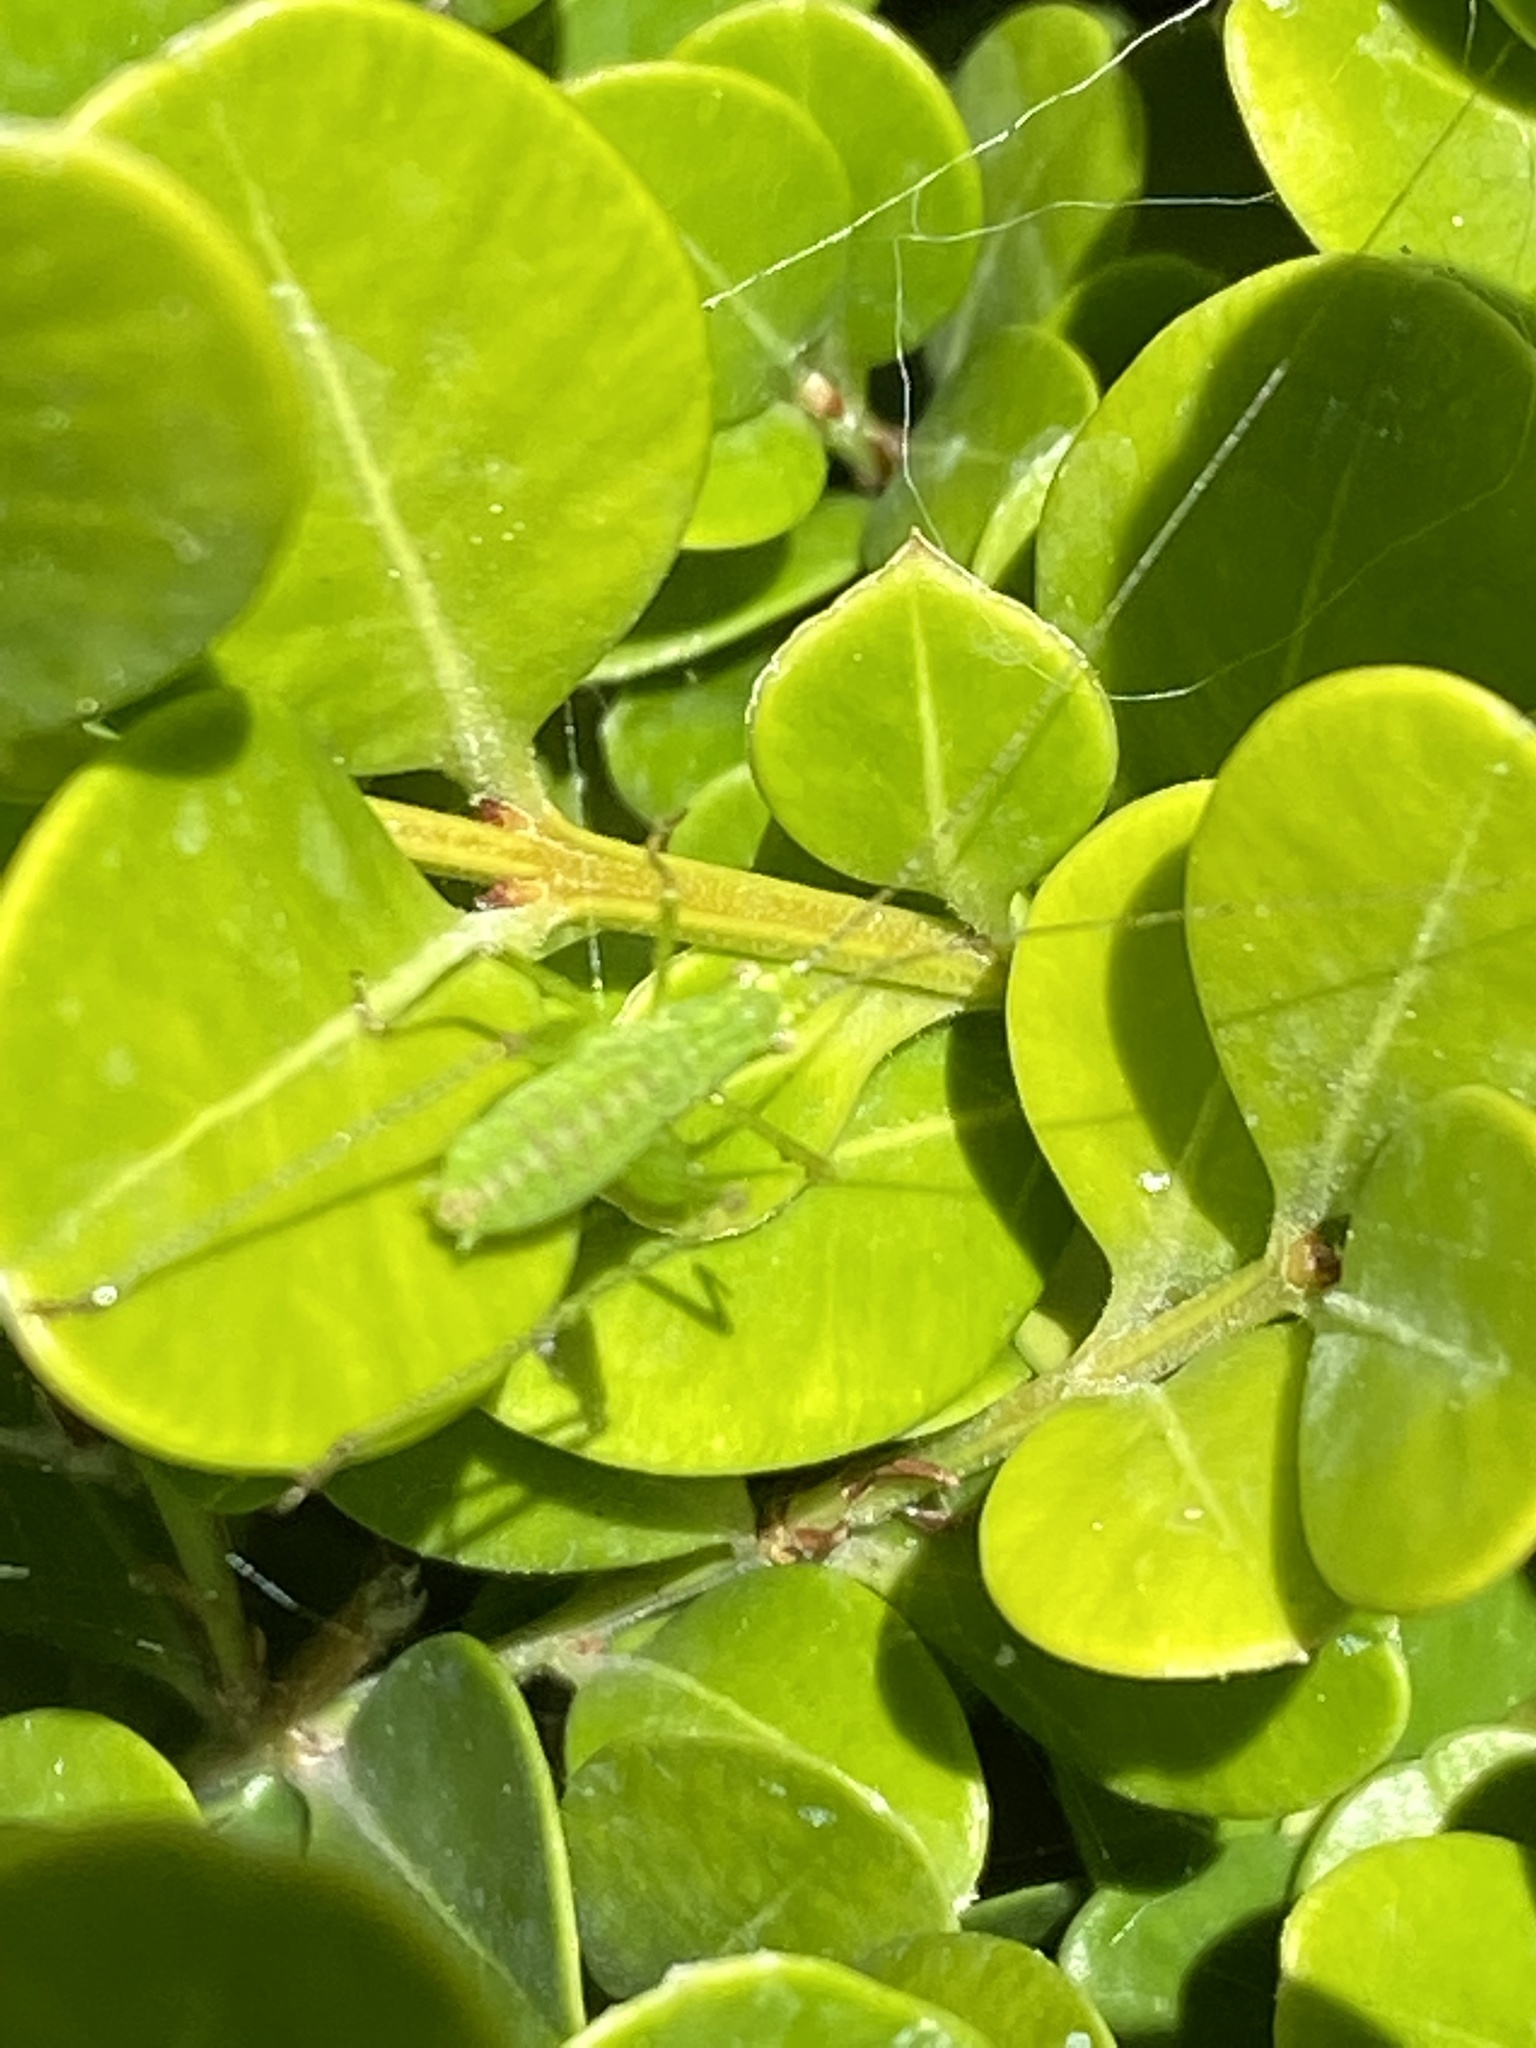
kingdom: Animalia
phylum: Arthropoda
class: Insecta
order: Orthoptera
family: Tettigoniidae
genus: Phaneroptera
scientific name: Phaneroptera nana
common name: Southern sickle bush-cricket
